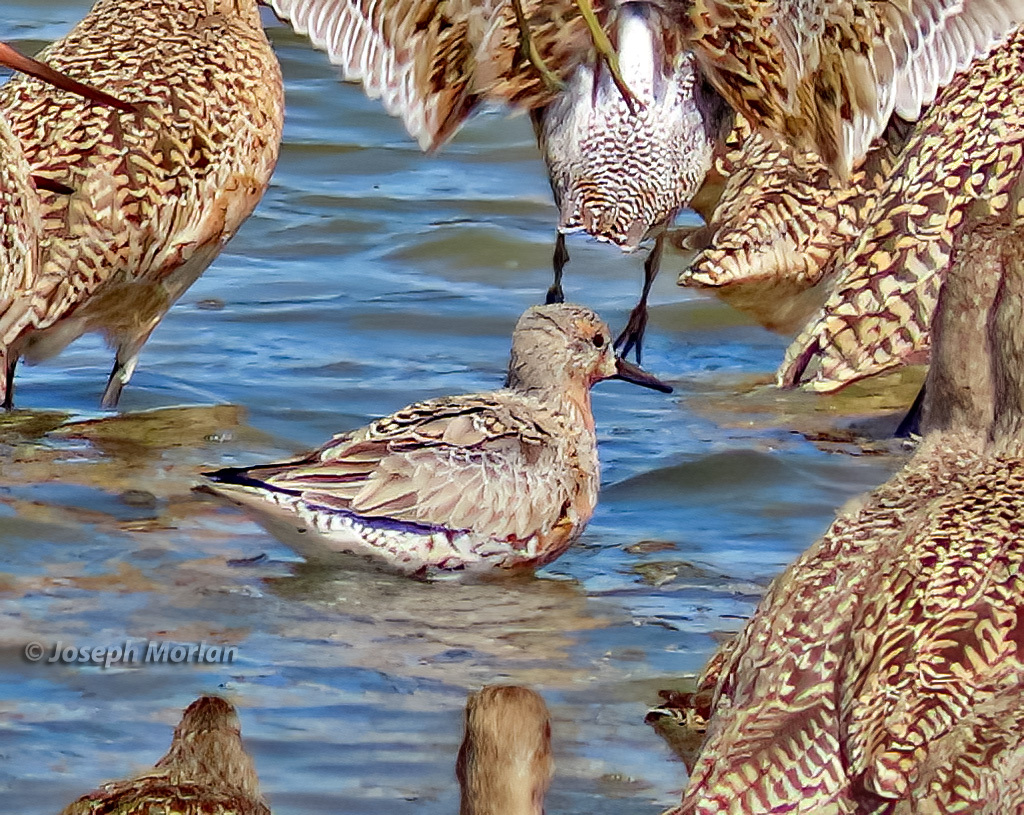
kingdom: Animalia
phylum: Chordata
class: Aves
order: Charadriiformes
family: Scolopacidae
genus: Calidris
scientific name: Calidris canutus
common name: Red knot
